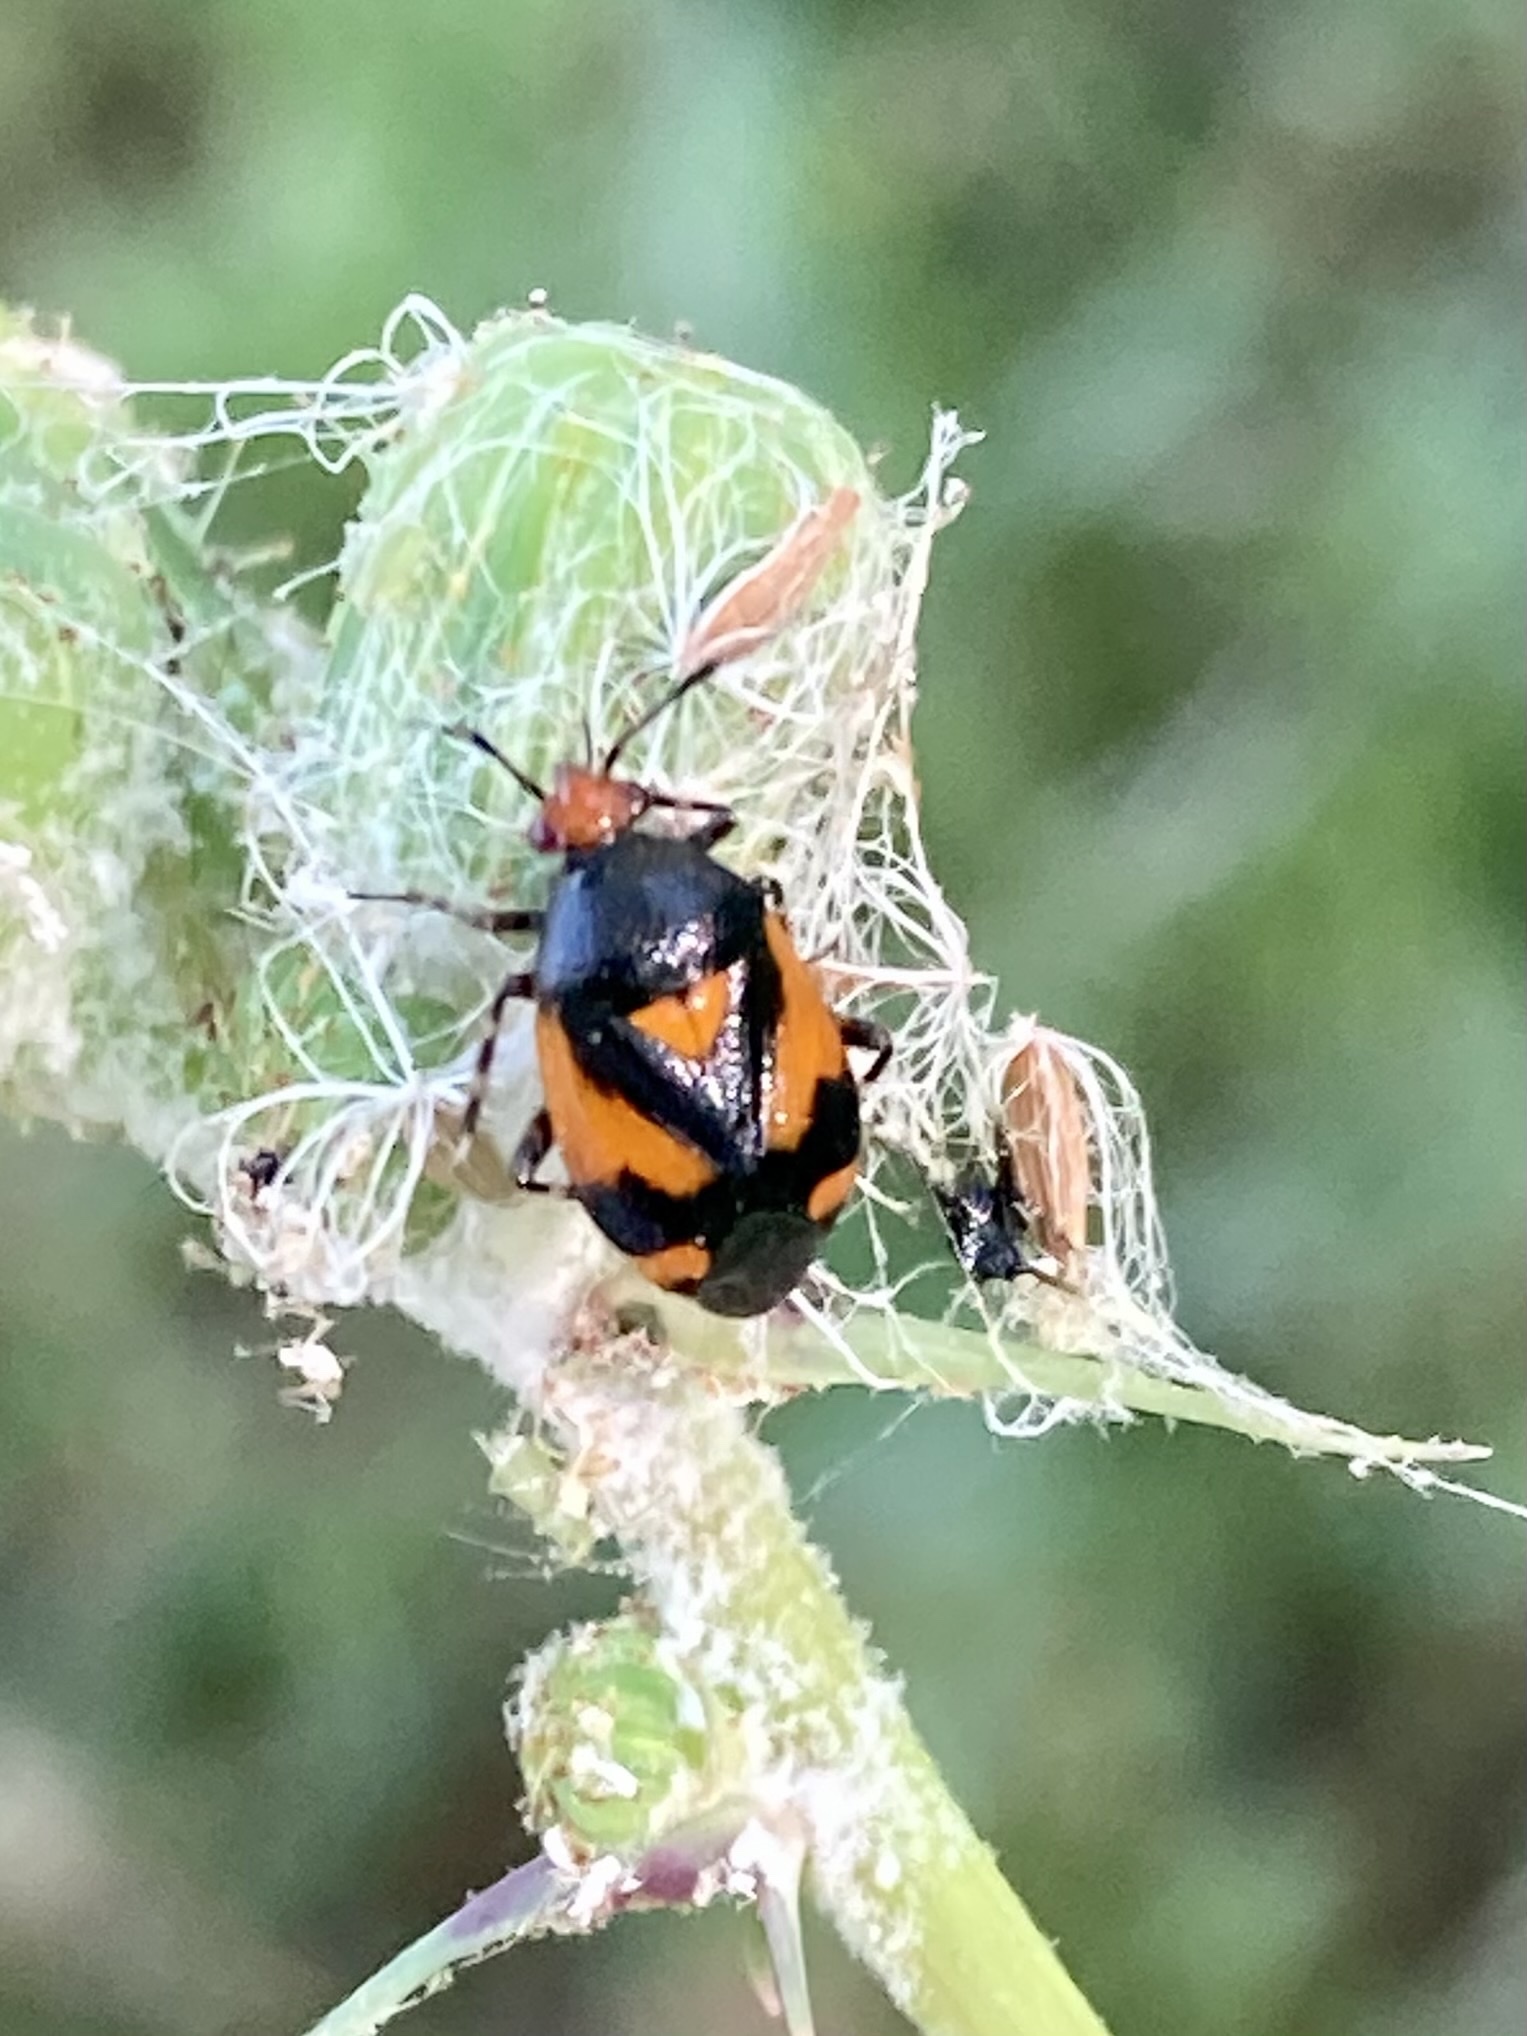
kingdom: Animalia
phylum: Arthropoda
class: Insecta
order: Hemiptera
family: Miridae
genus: Deraeocoris
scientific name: Deraeocoris schach
